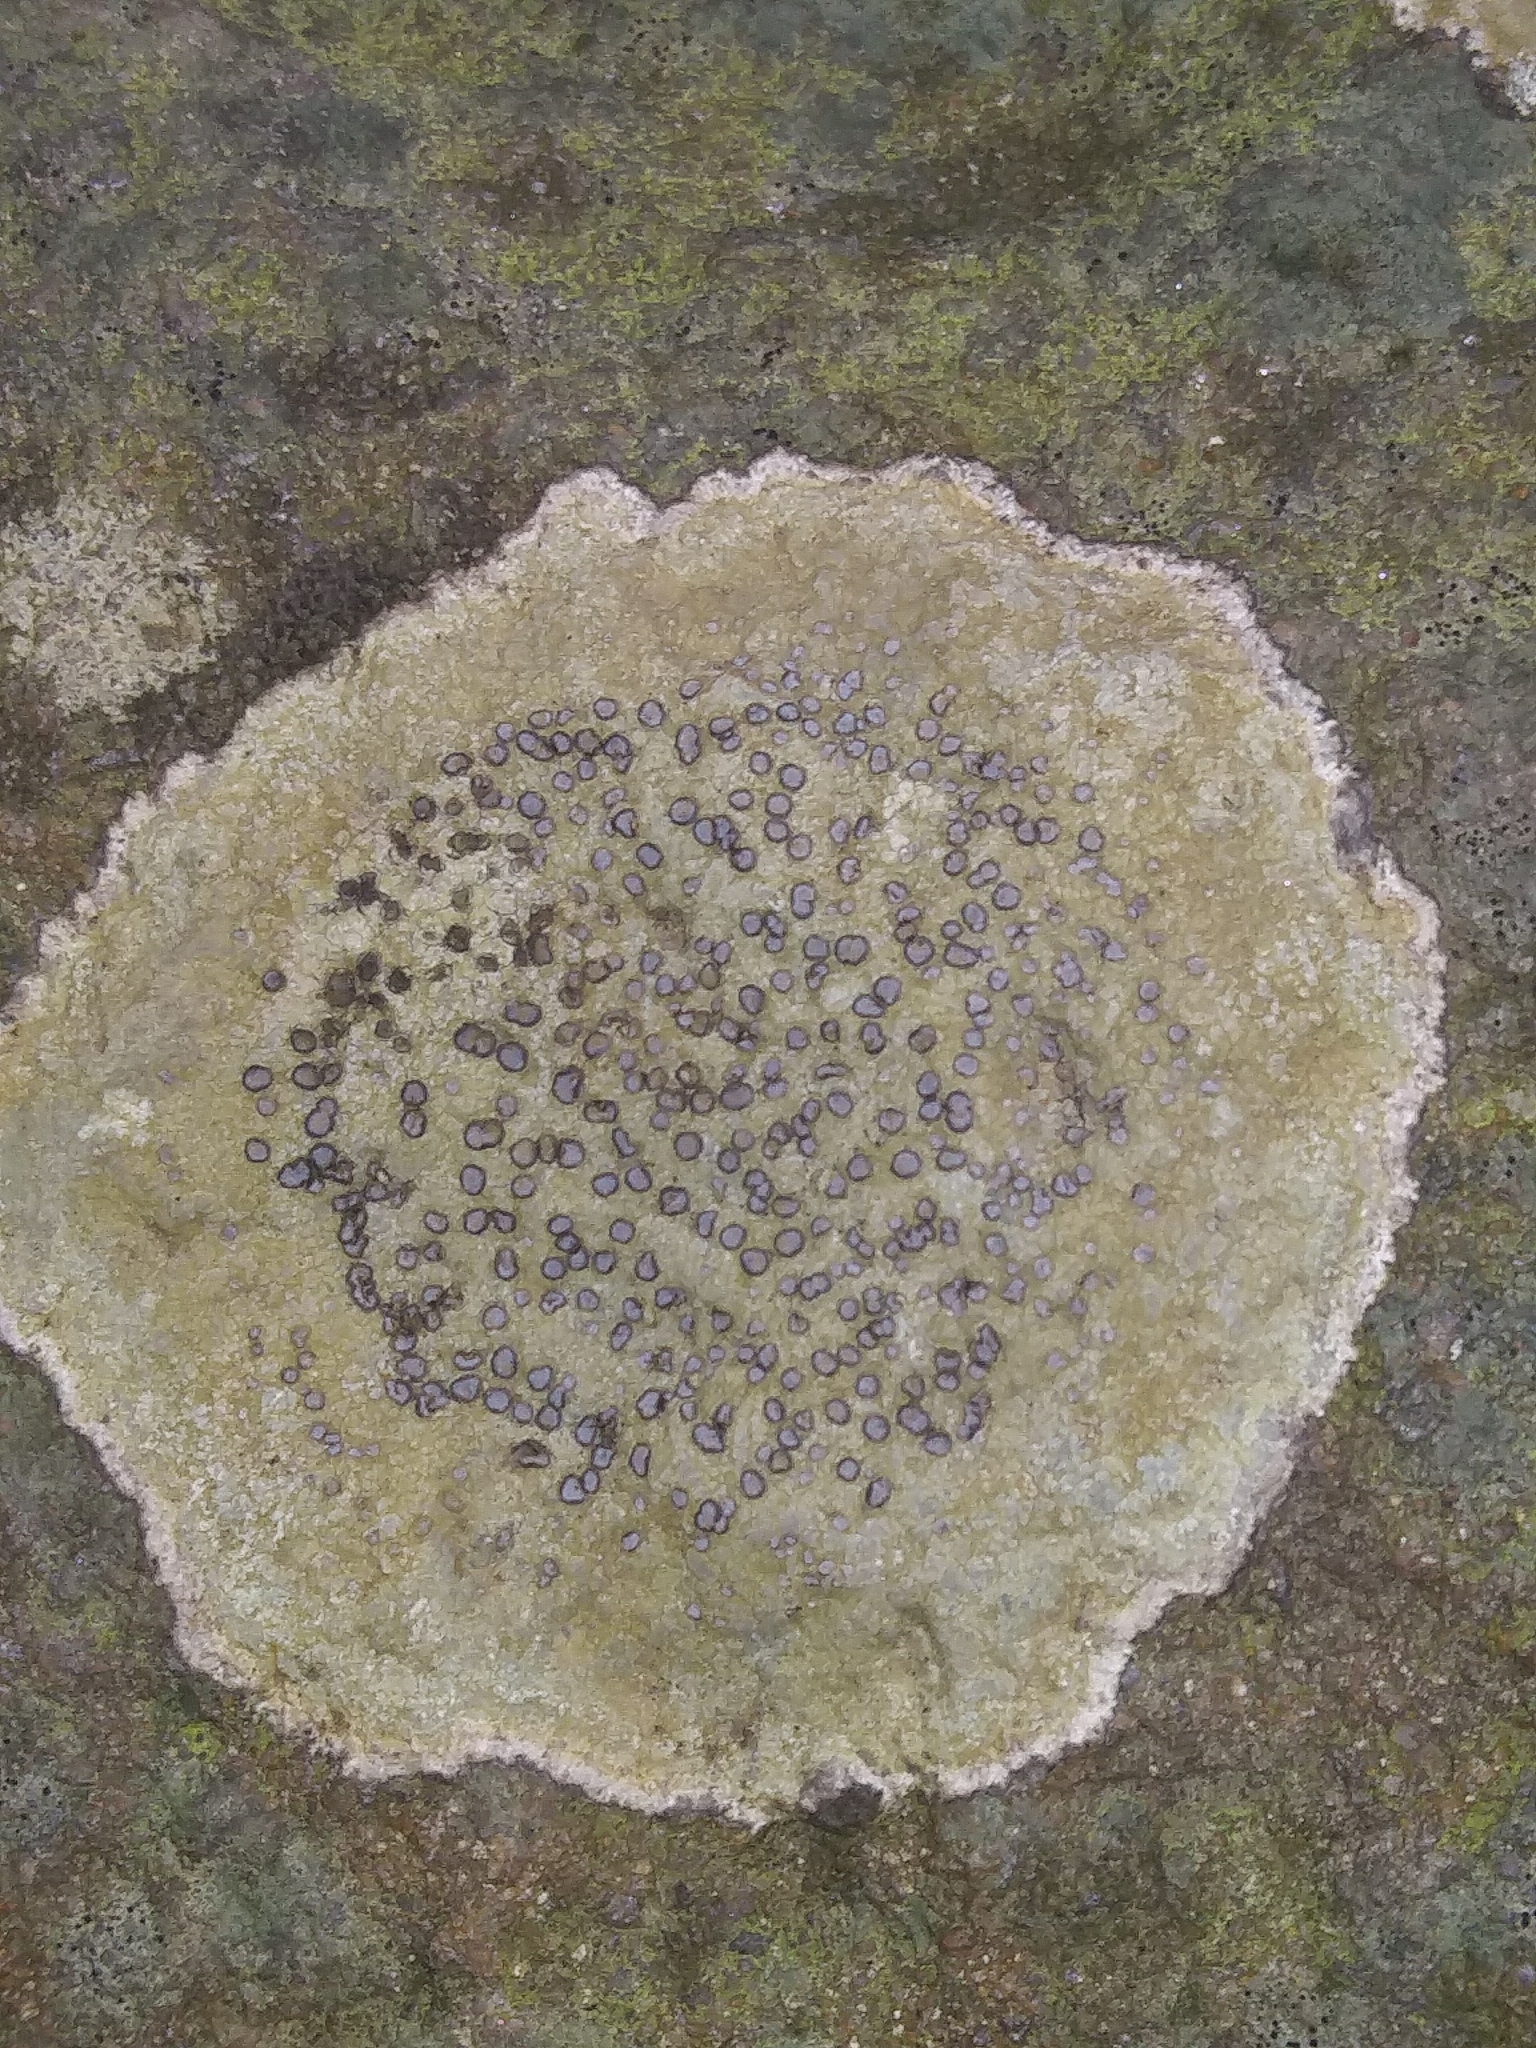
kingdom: Fungi
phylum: Ascomycota
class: Lecanoromycetes
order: Lecideales
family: Lecideaceae
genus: Porpidia
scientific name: Porpidia albocaerulescens
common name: Smokey-eyed boulder lichen
